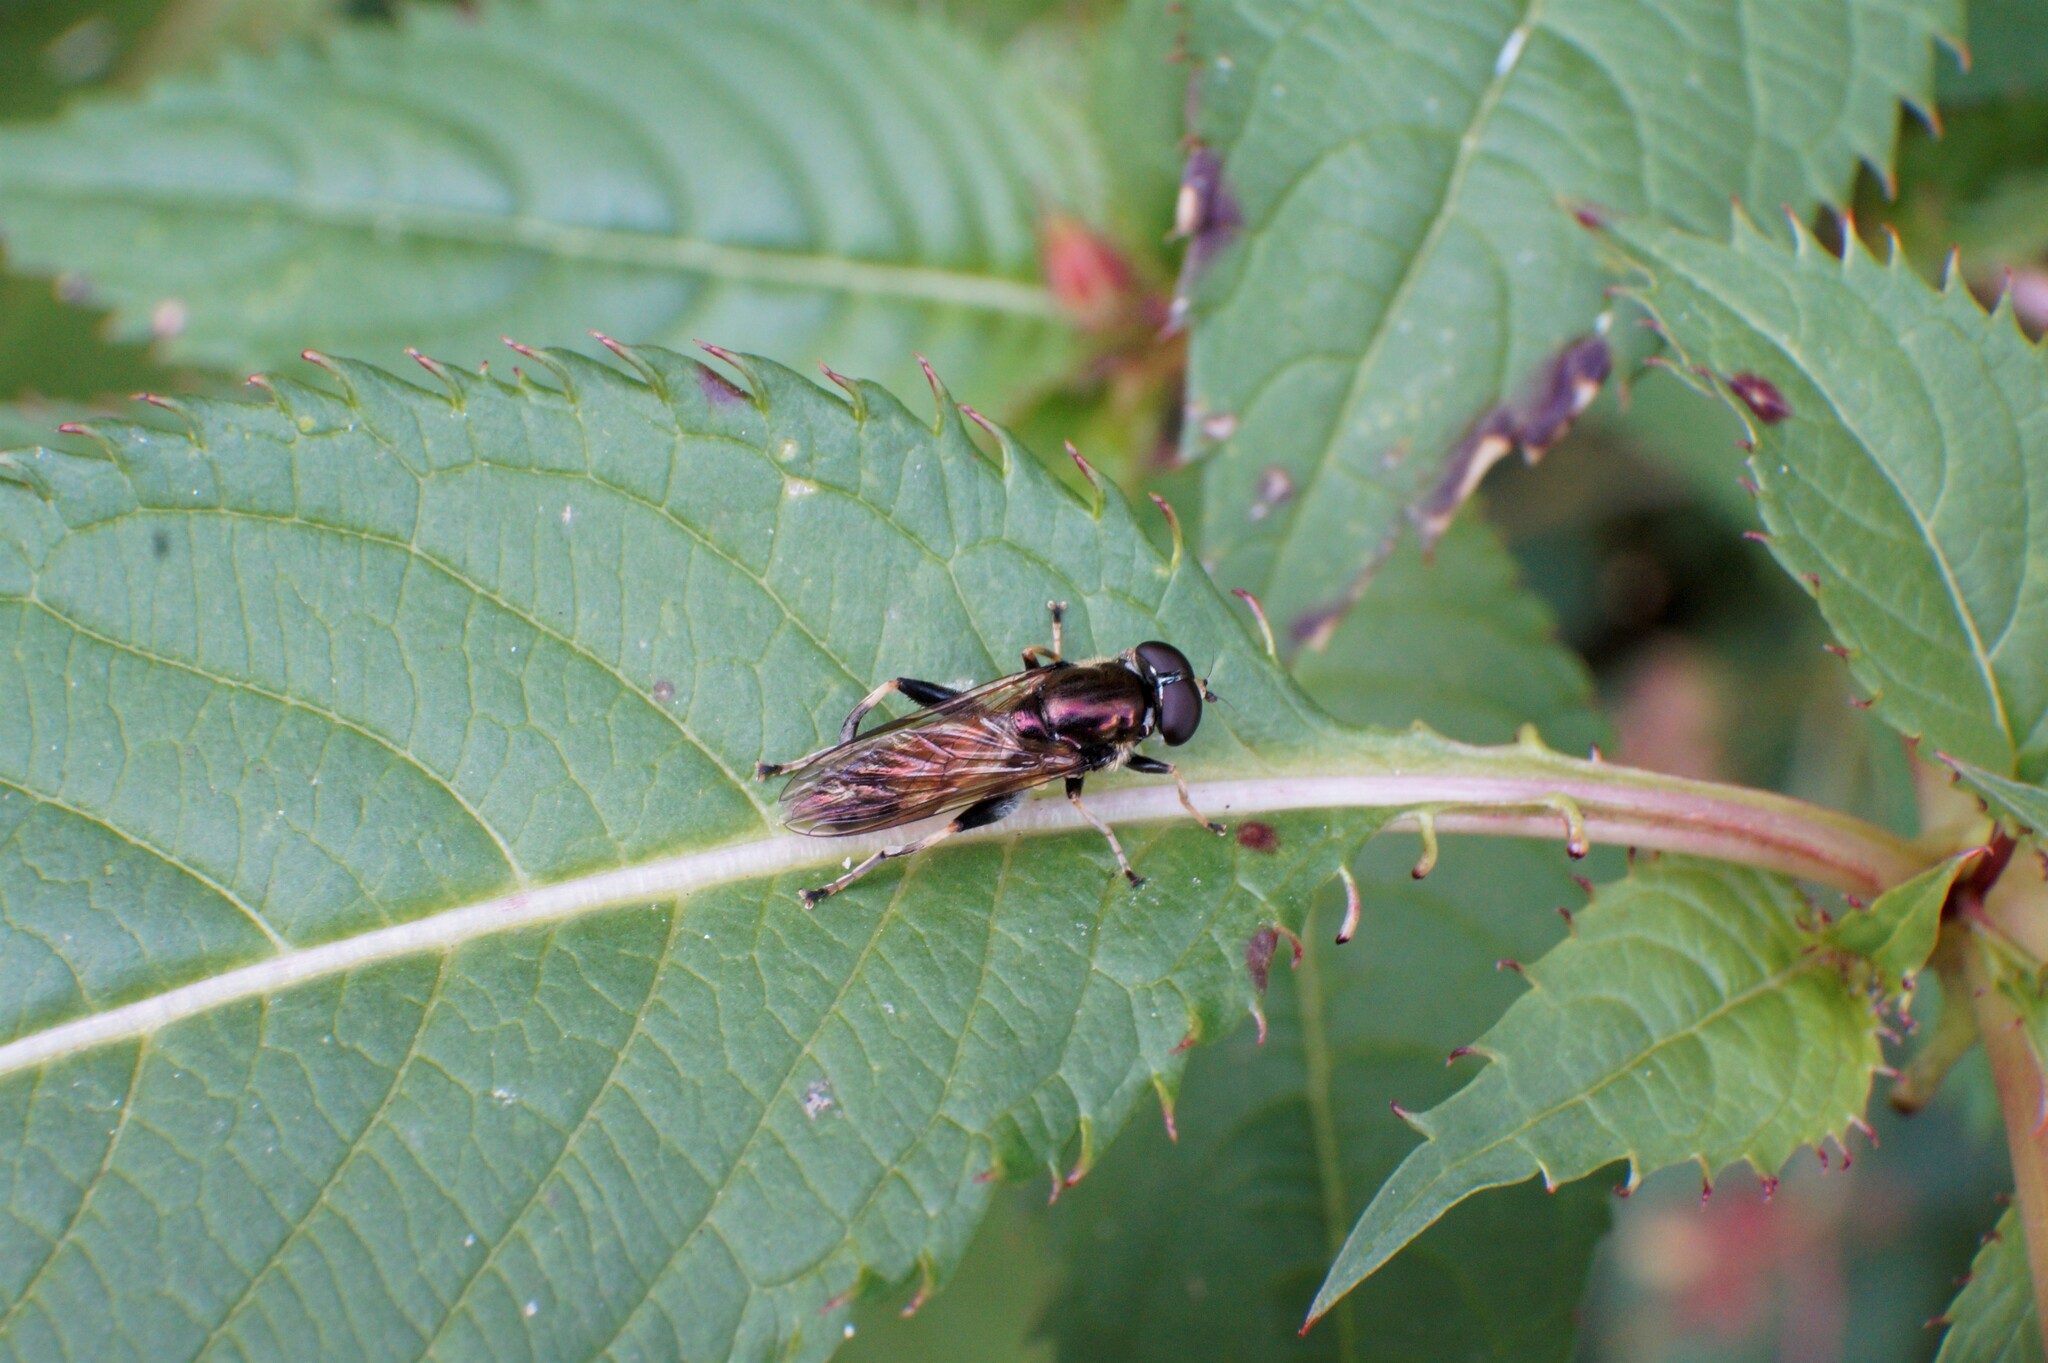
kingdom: Animalia
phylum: Arthropoda
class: Insecta
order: Diptera
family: Syrphidae
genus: Xylota
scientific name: Xylota segnis
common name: Brown-toed forest fly
